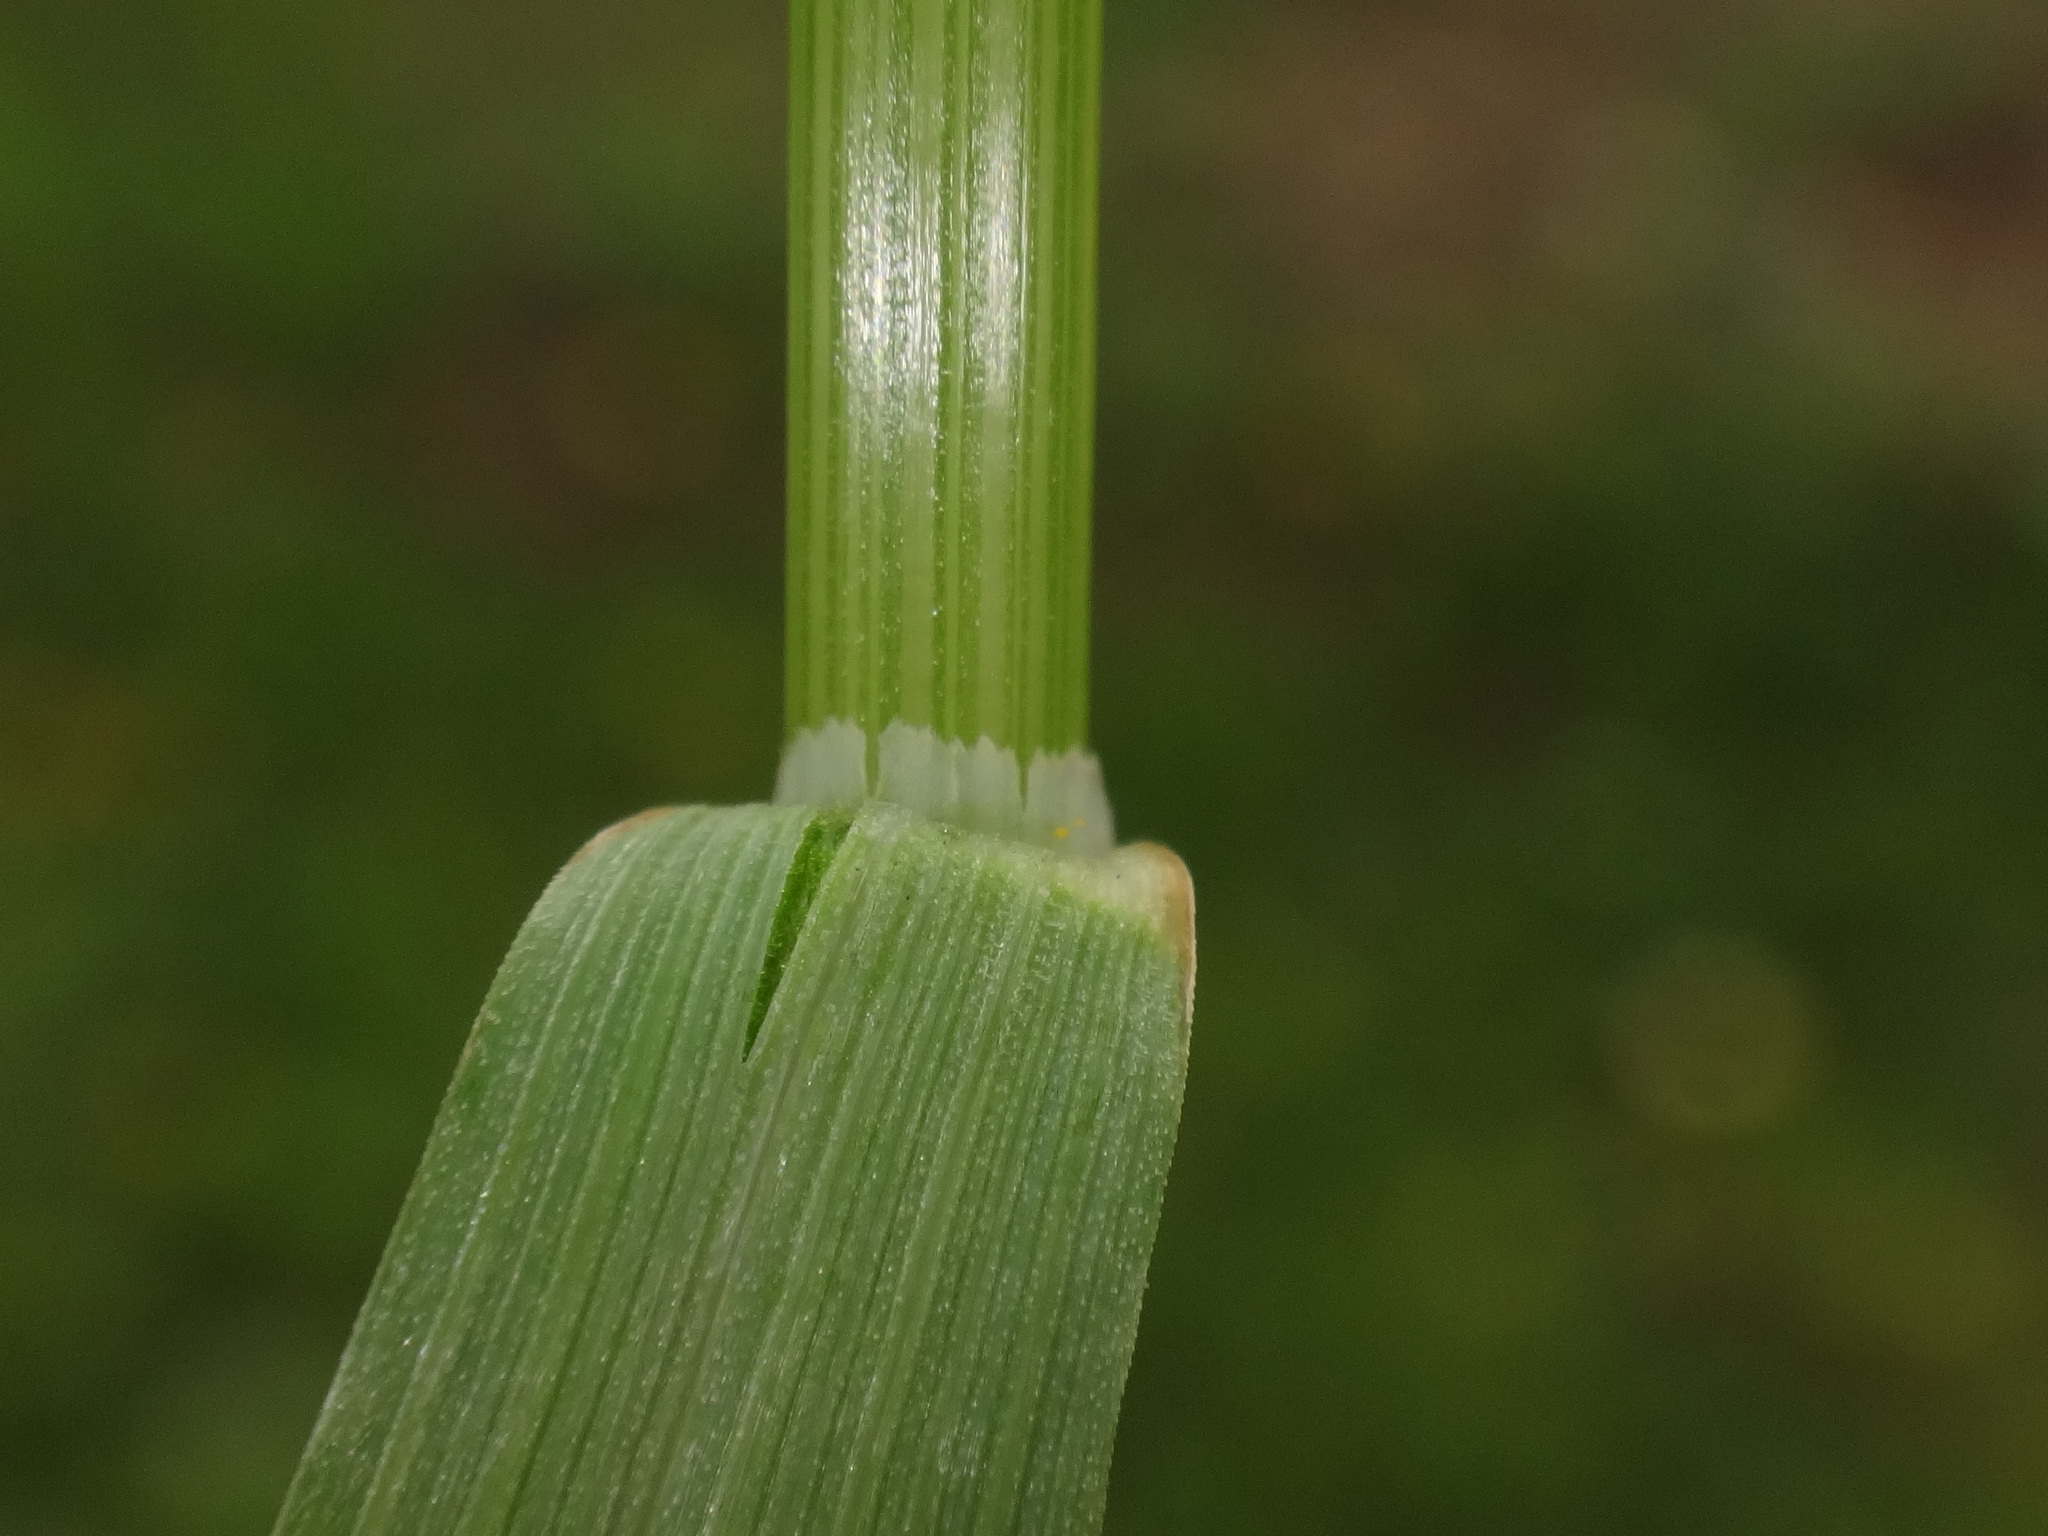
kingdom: Plantae
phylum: Tracheophyta
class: Liliopsida
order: Poales
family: Poaceae
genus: Arrhenatherum
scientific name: Arrhenatherum elatius
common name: Tall oatgrass
